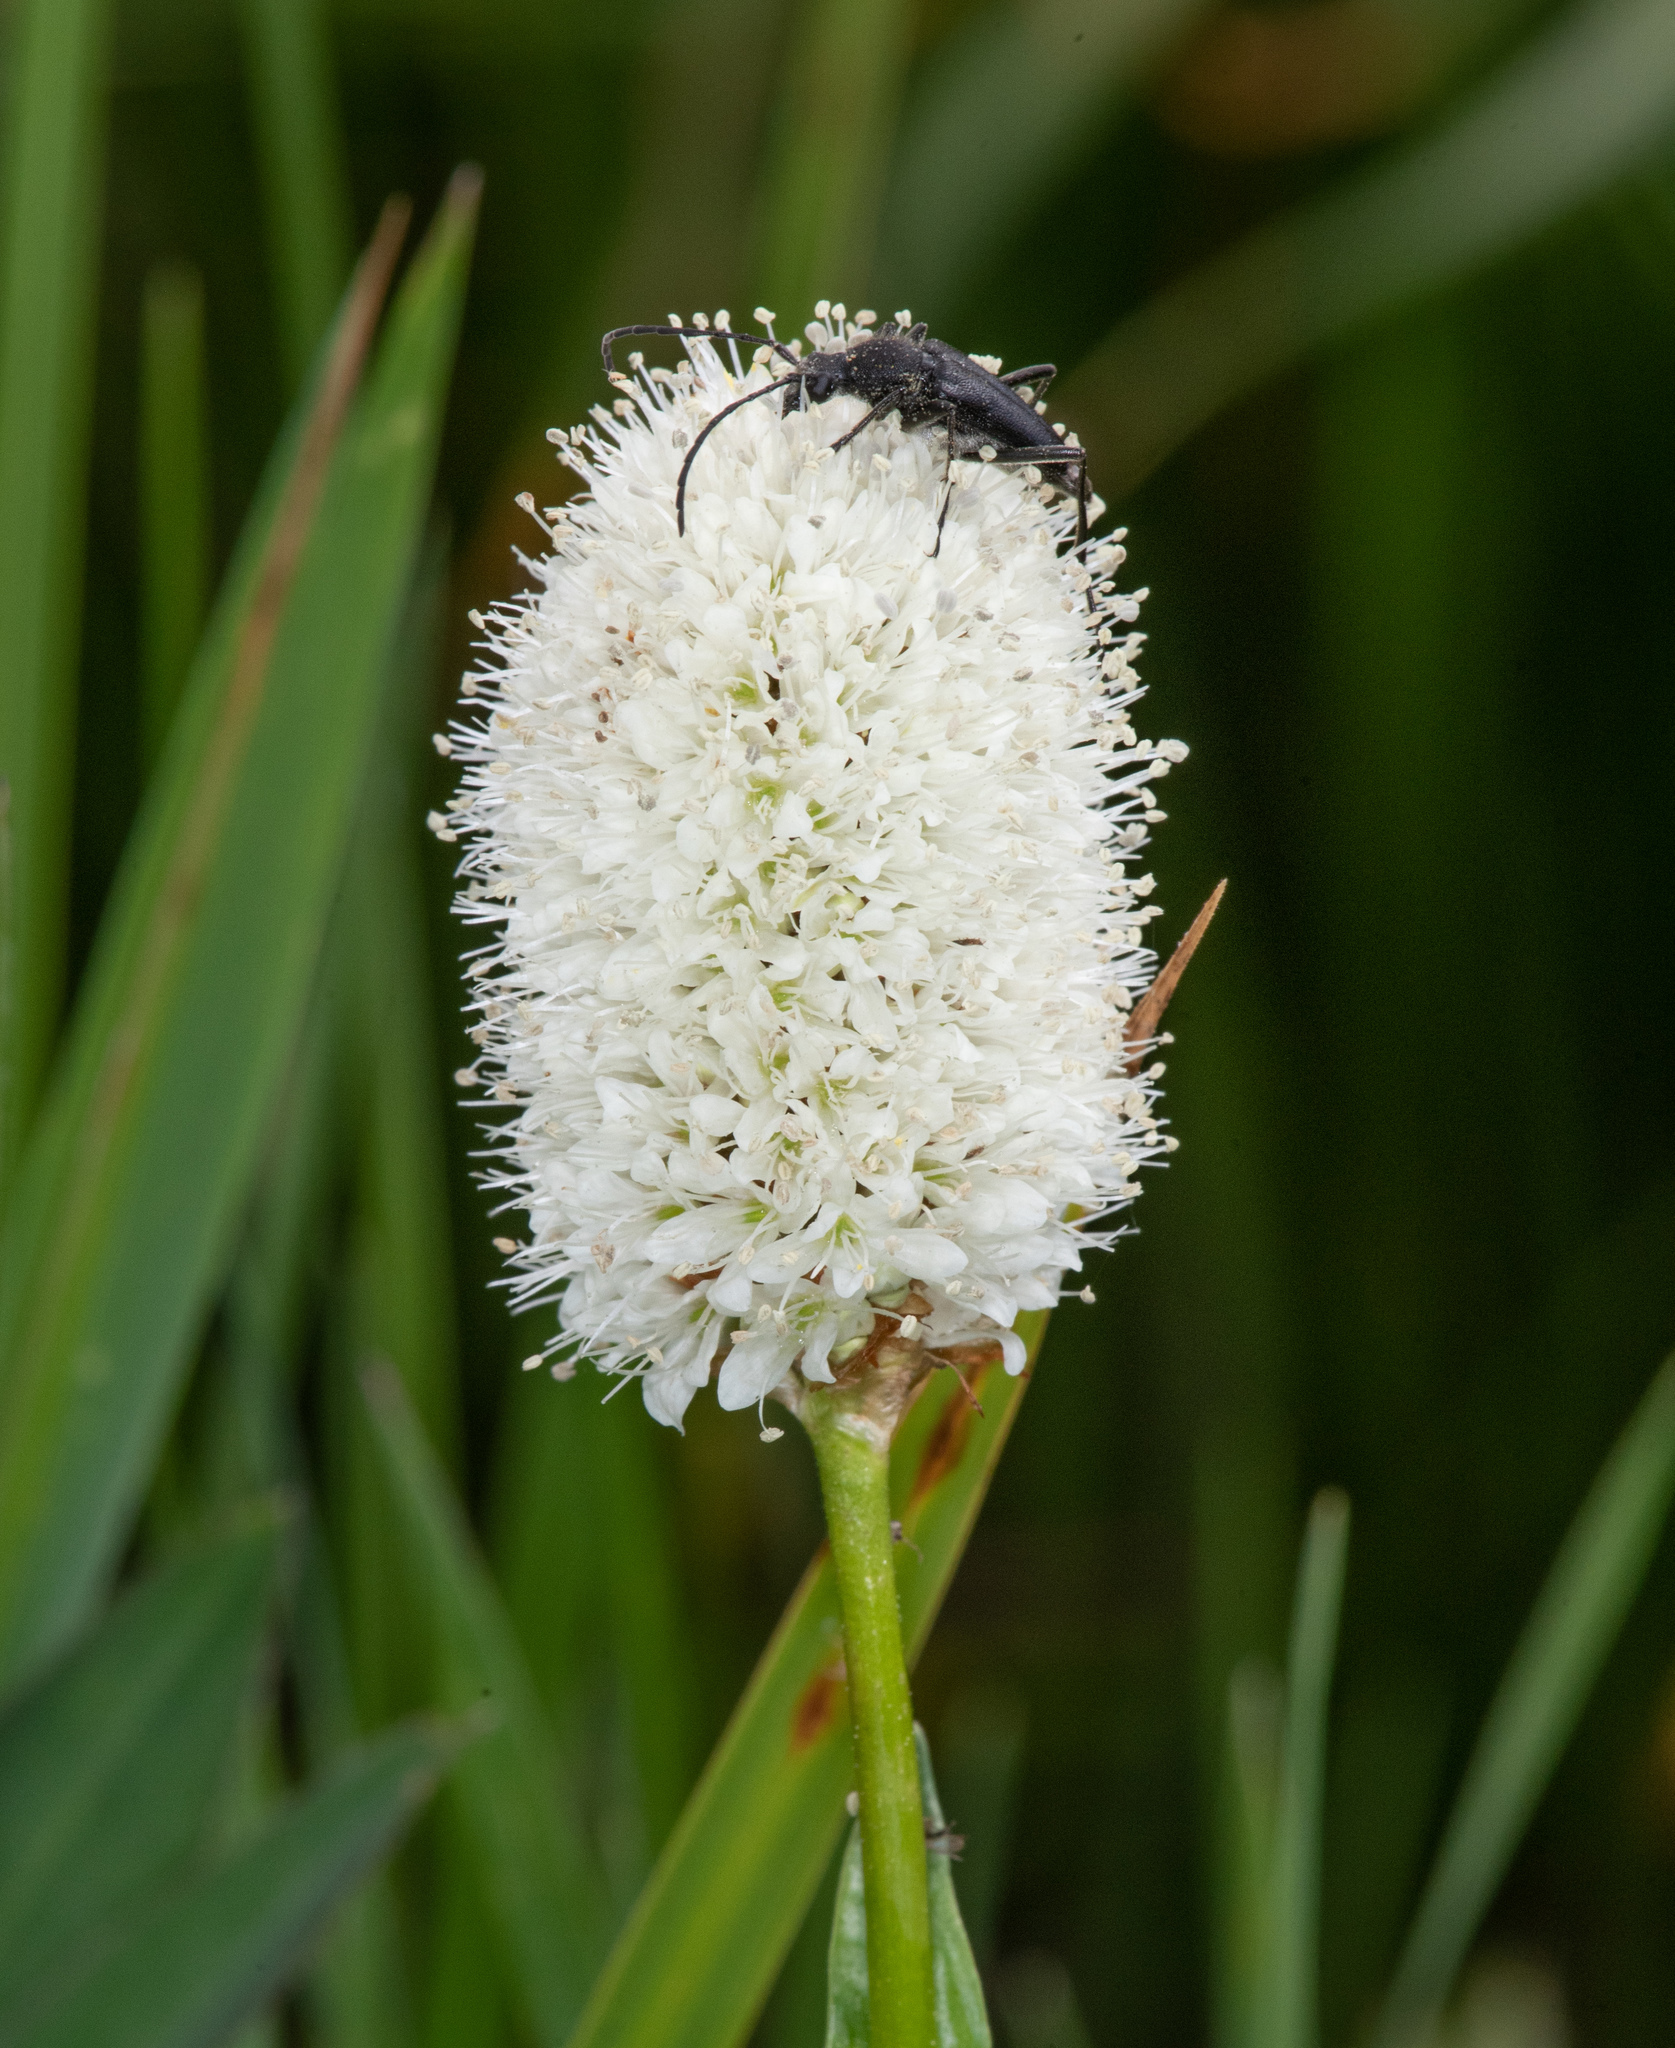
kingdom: Plantae
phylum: Tracheophyta
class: Magnoliopsida
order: Caryophyllales
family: Polygonaceae
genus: Bistorta
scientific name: Bistorta bistortoides
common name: American bistort
